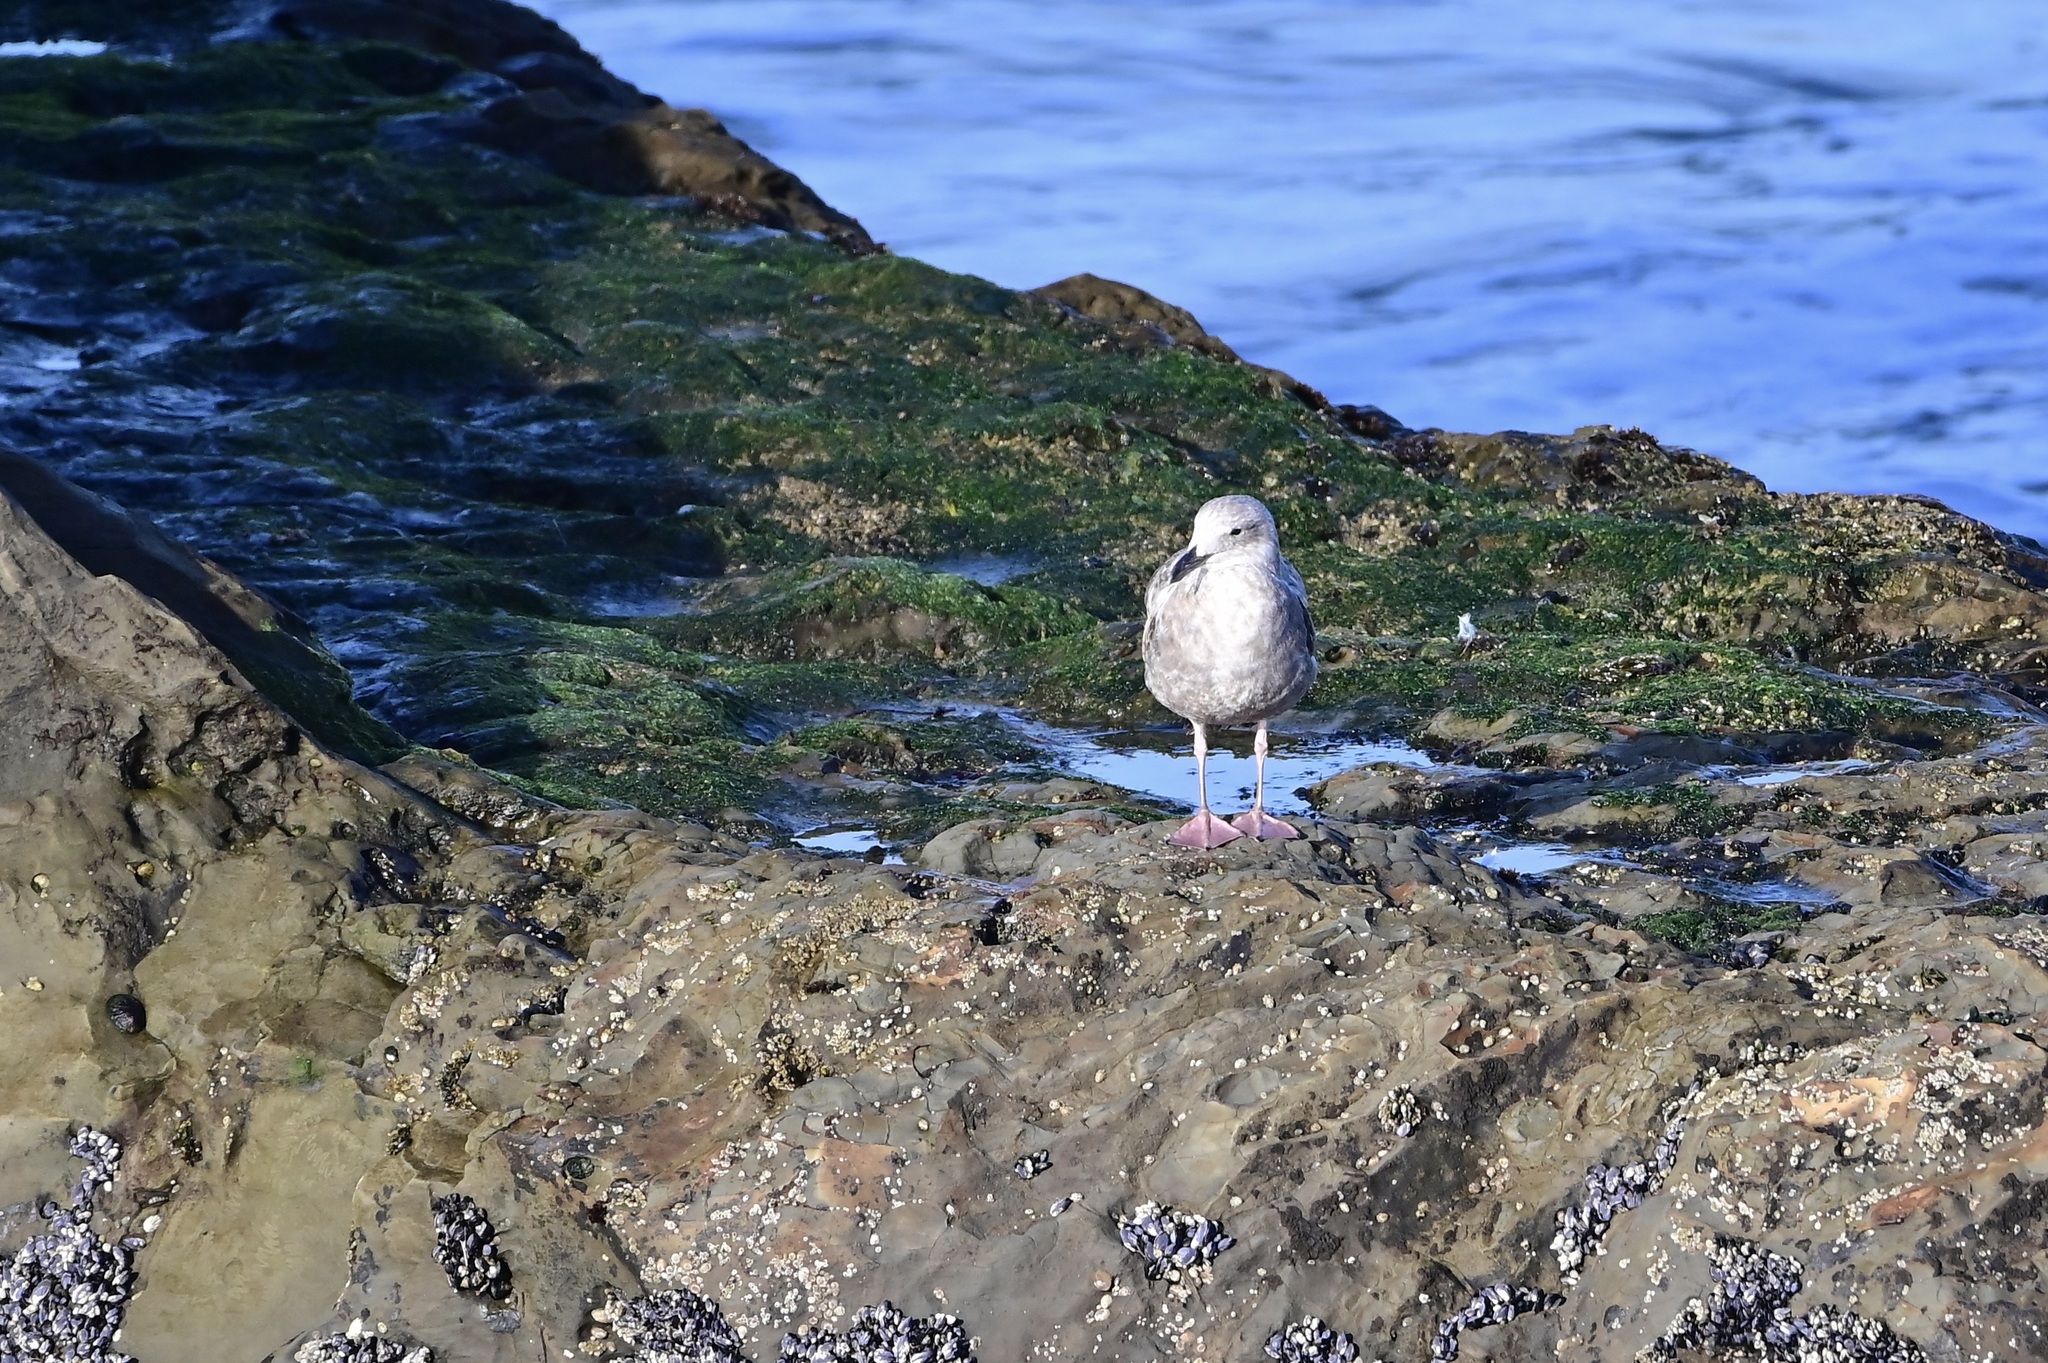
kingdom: Animalia
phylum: Chordata
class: Aves
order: Charadriiformes
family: Laridae
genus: Larus
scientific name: Larus occidentalis
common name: Western gull
